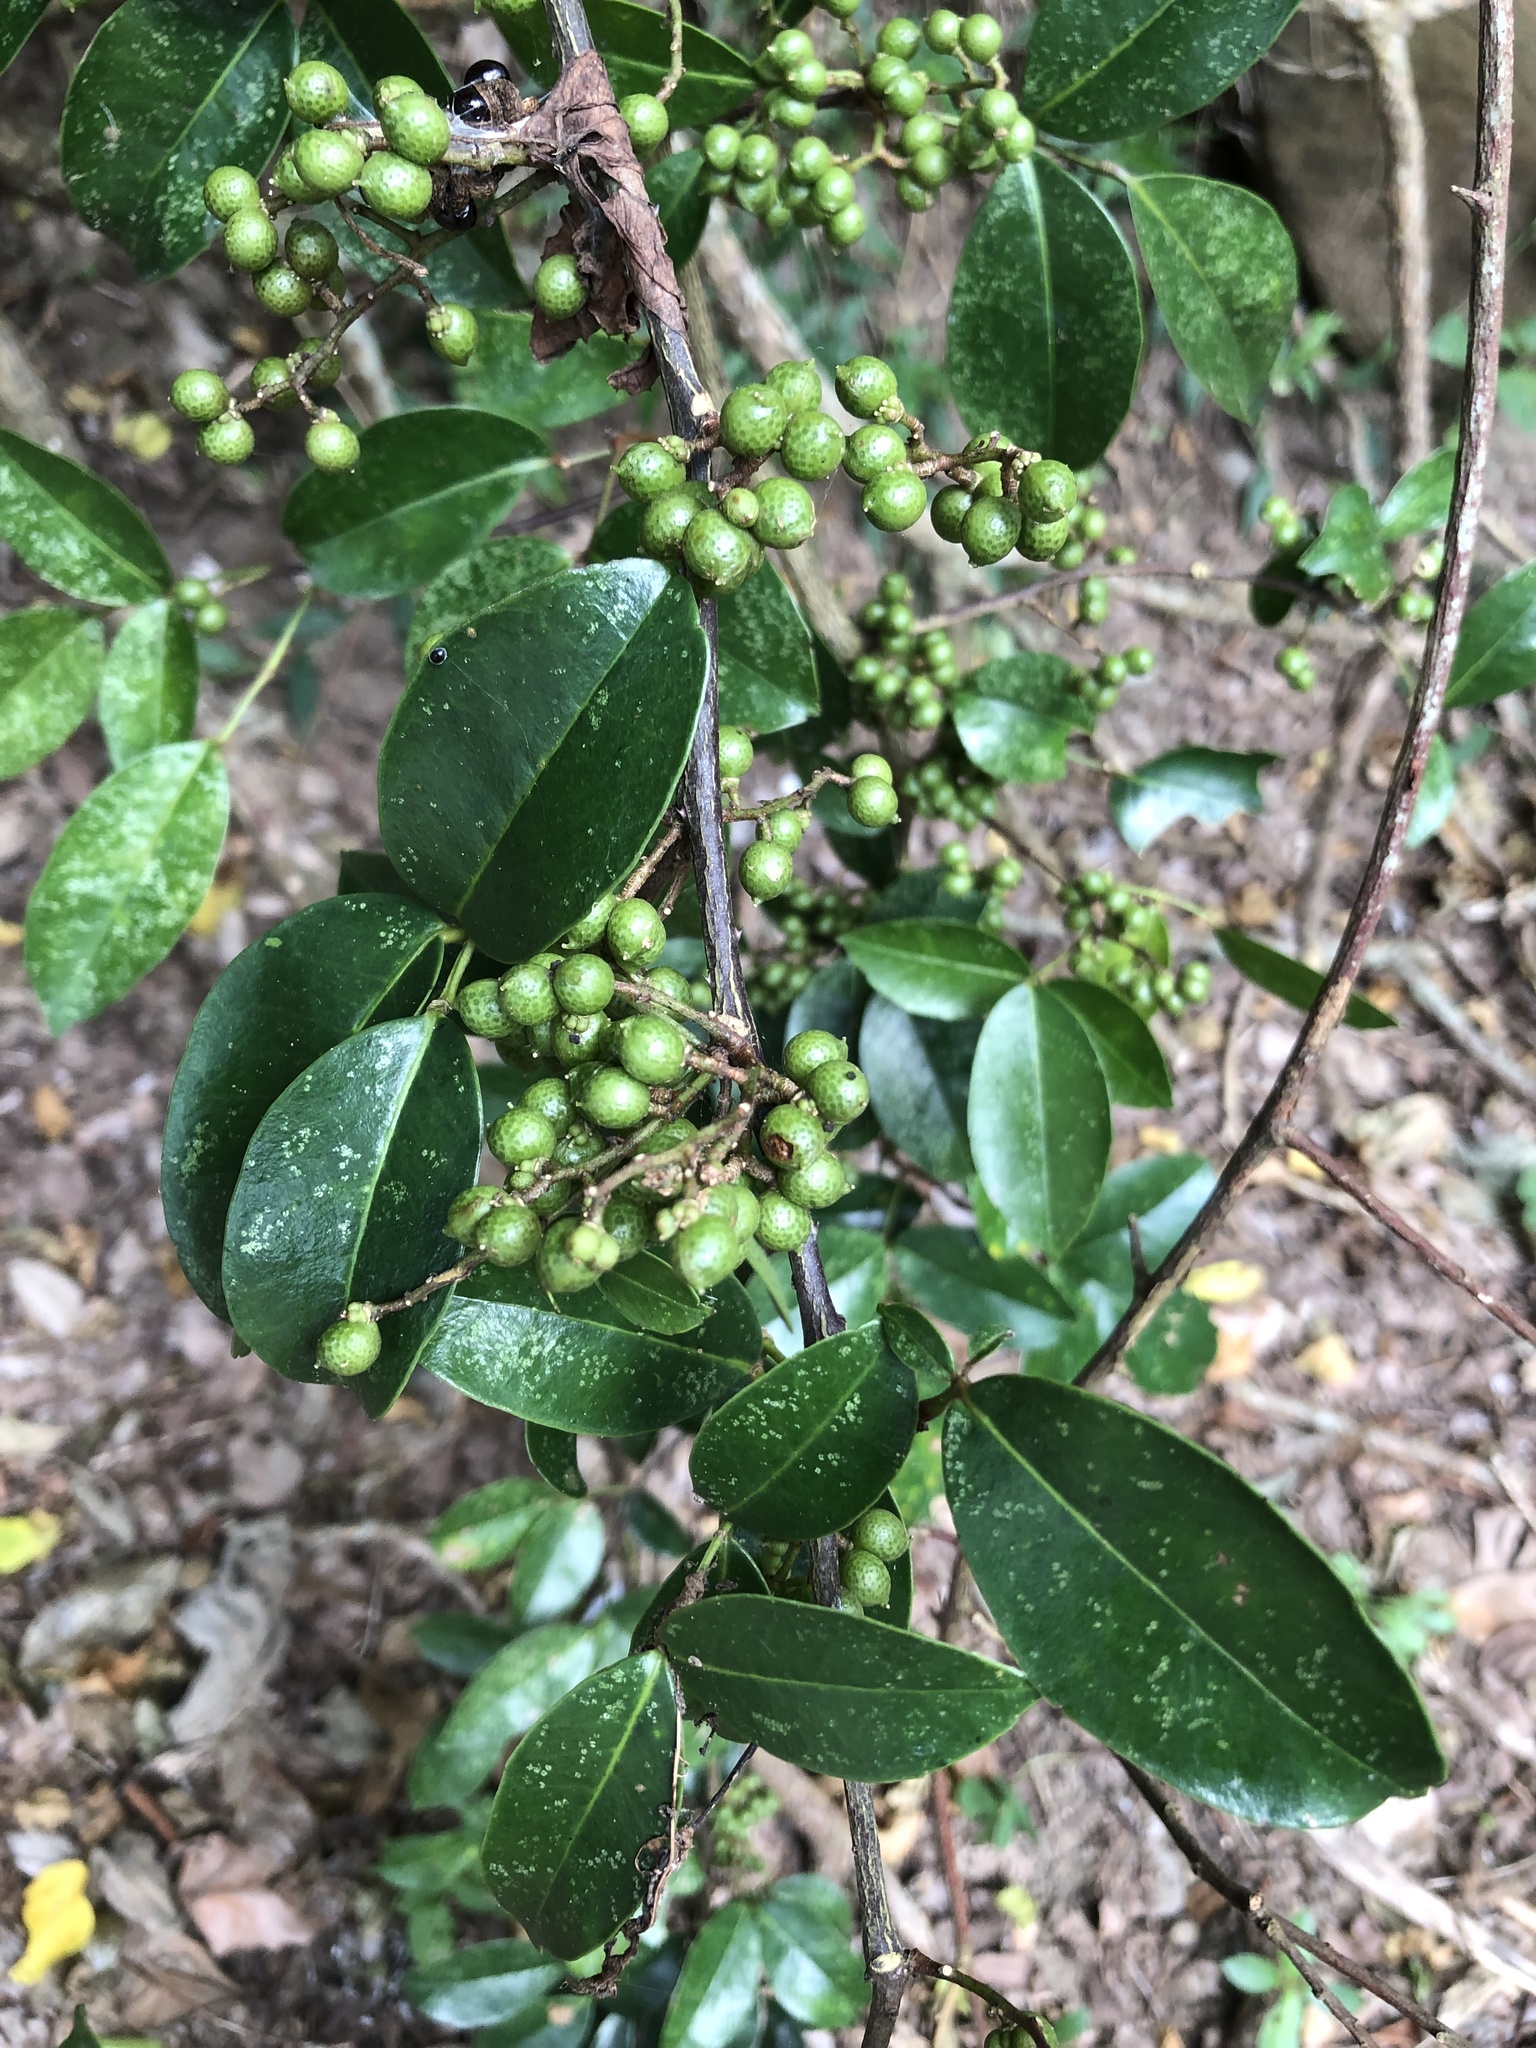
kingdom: Plantae
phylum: Tracheophyta
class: Magnoliopsida
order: Sapindales
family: Rutaceae
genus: Zanthoxylum
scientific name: Zanthoxylum nitidum
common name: Shiny-leaf prickly-ash
